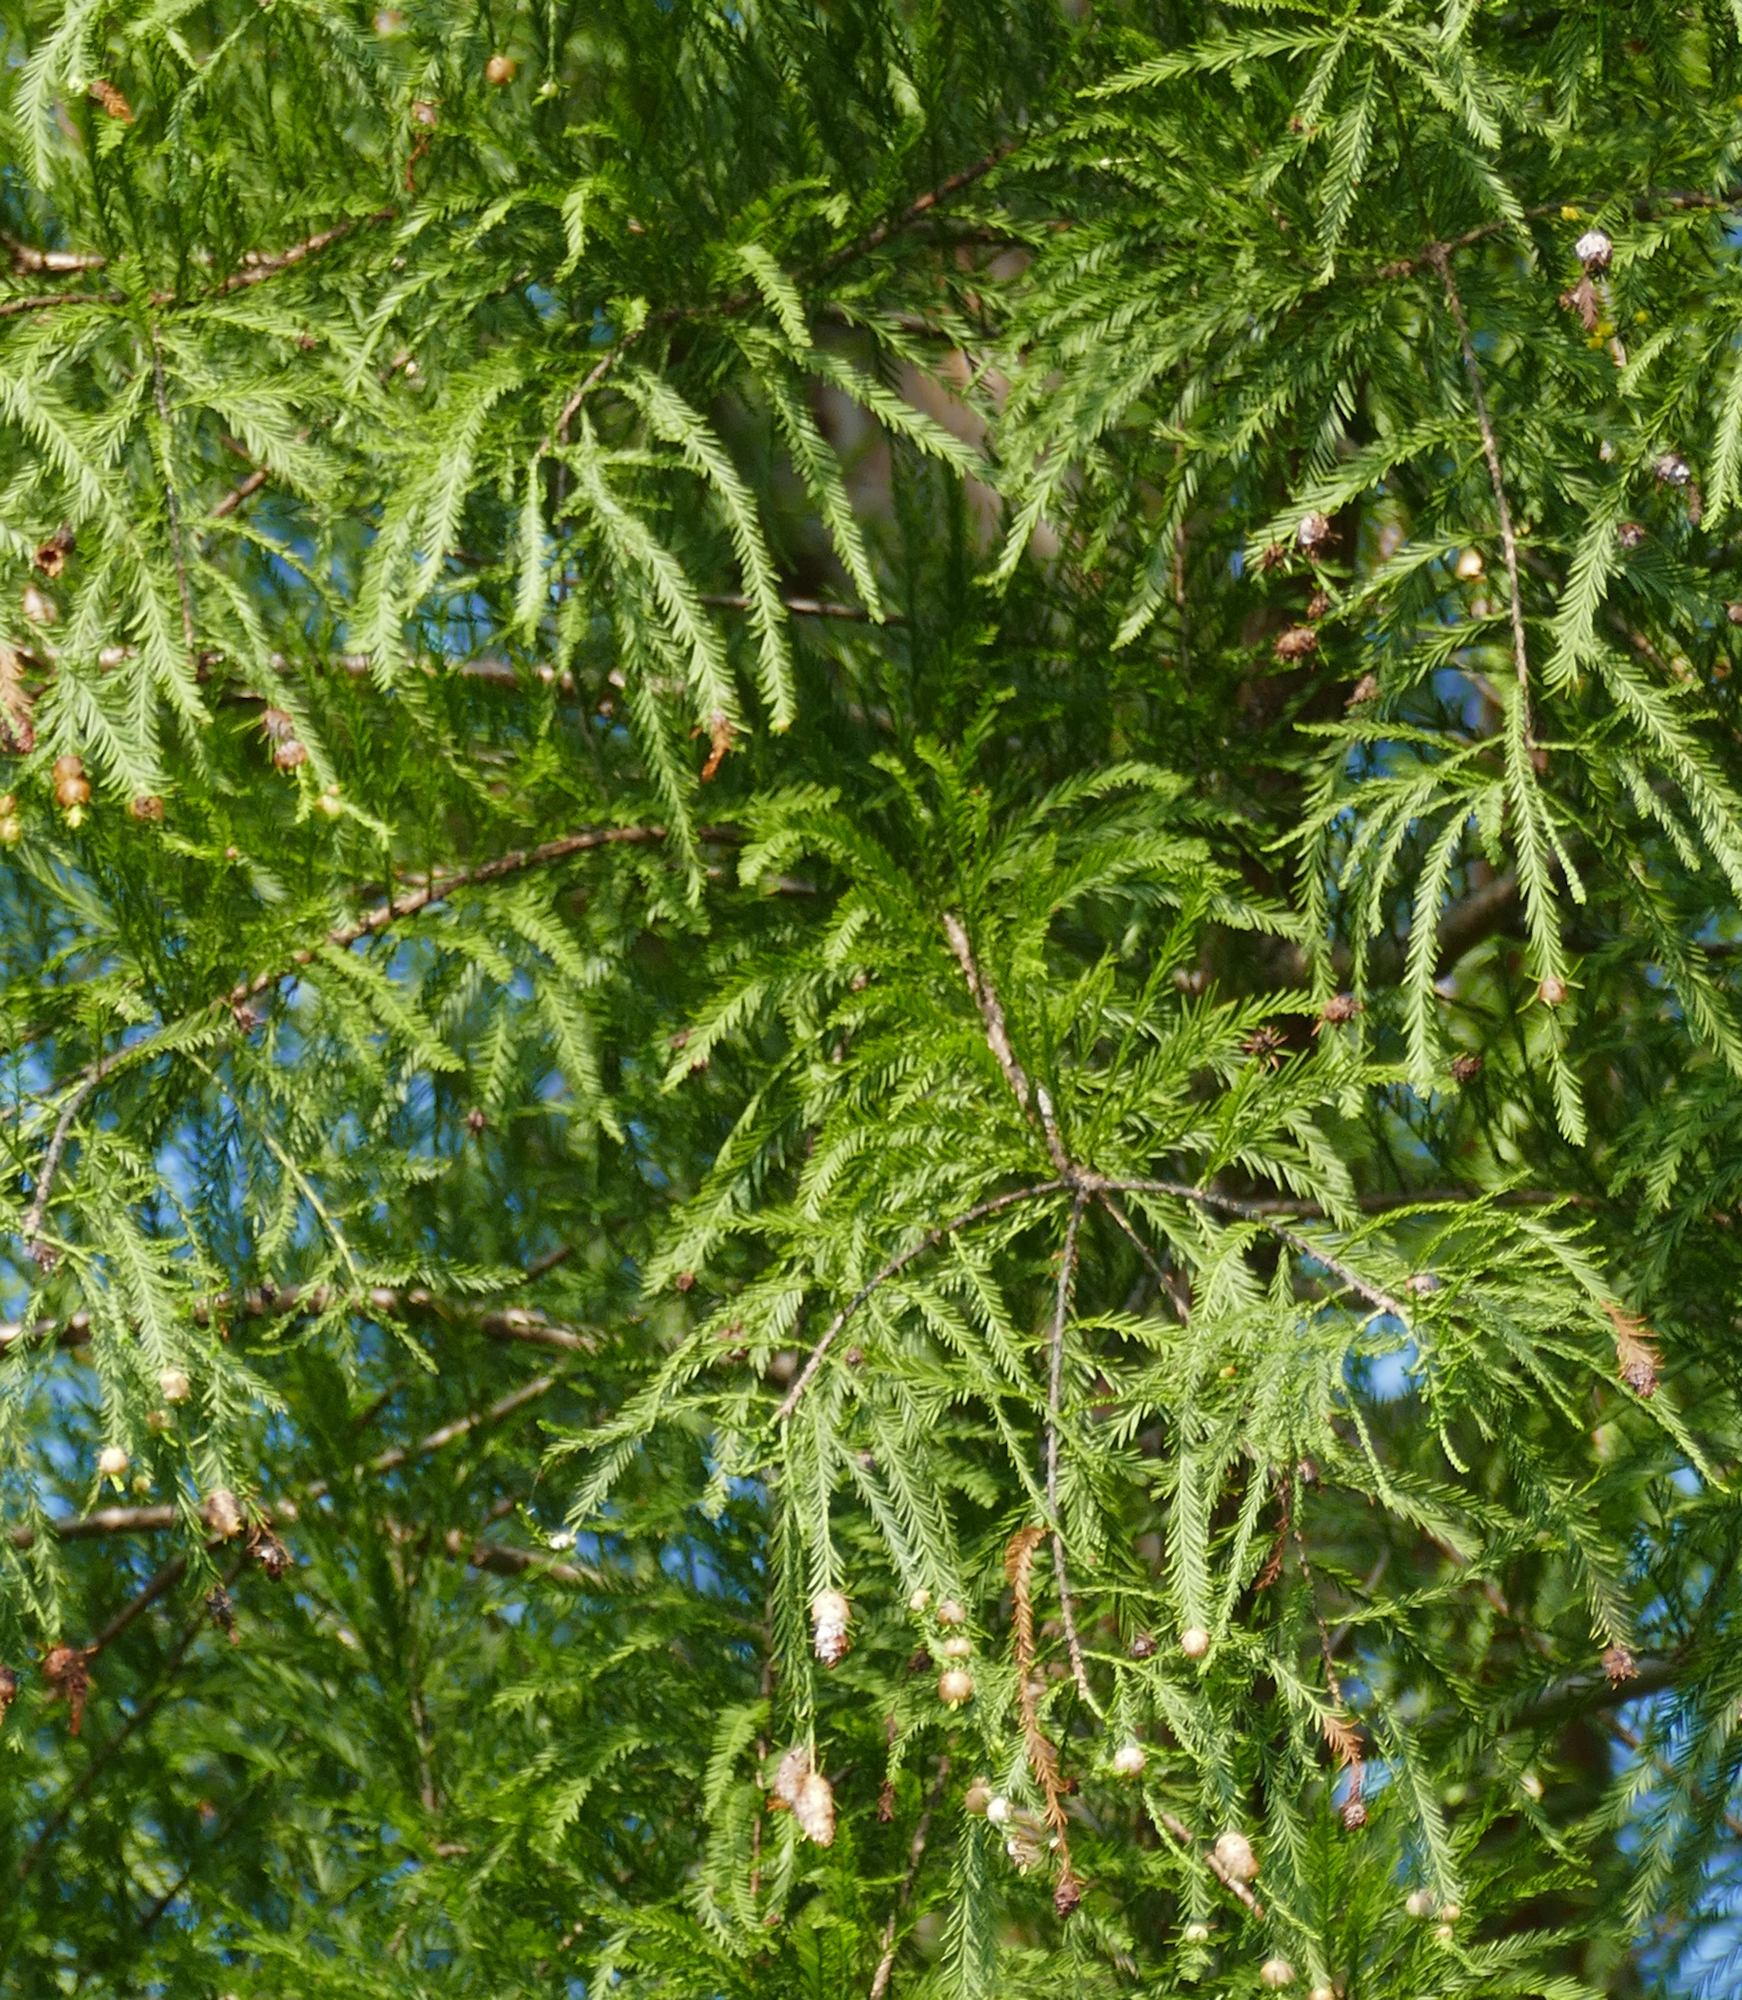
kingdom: Plantae
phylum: Tracheophyta
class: Pinopsida
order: Pinales
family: Cupressaceae
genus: Taxodium
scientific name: Taxodium distichum
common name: Bald cypress
